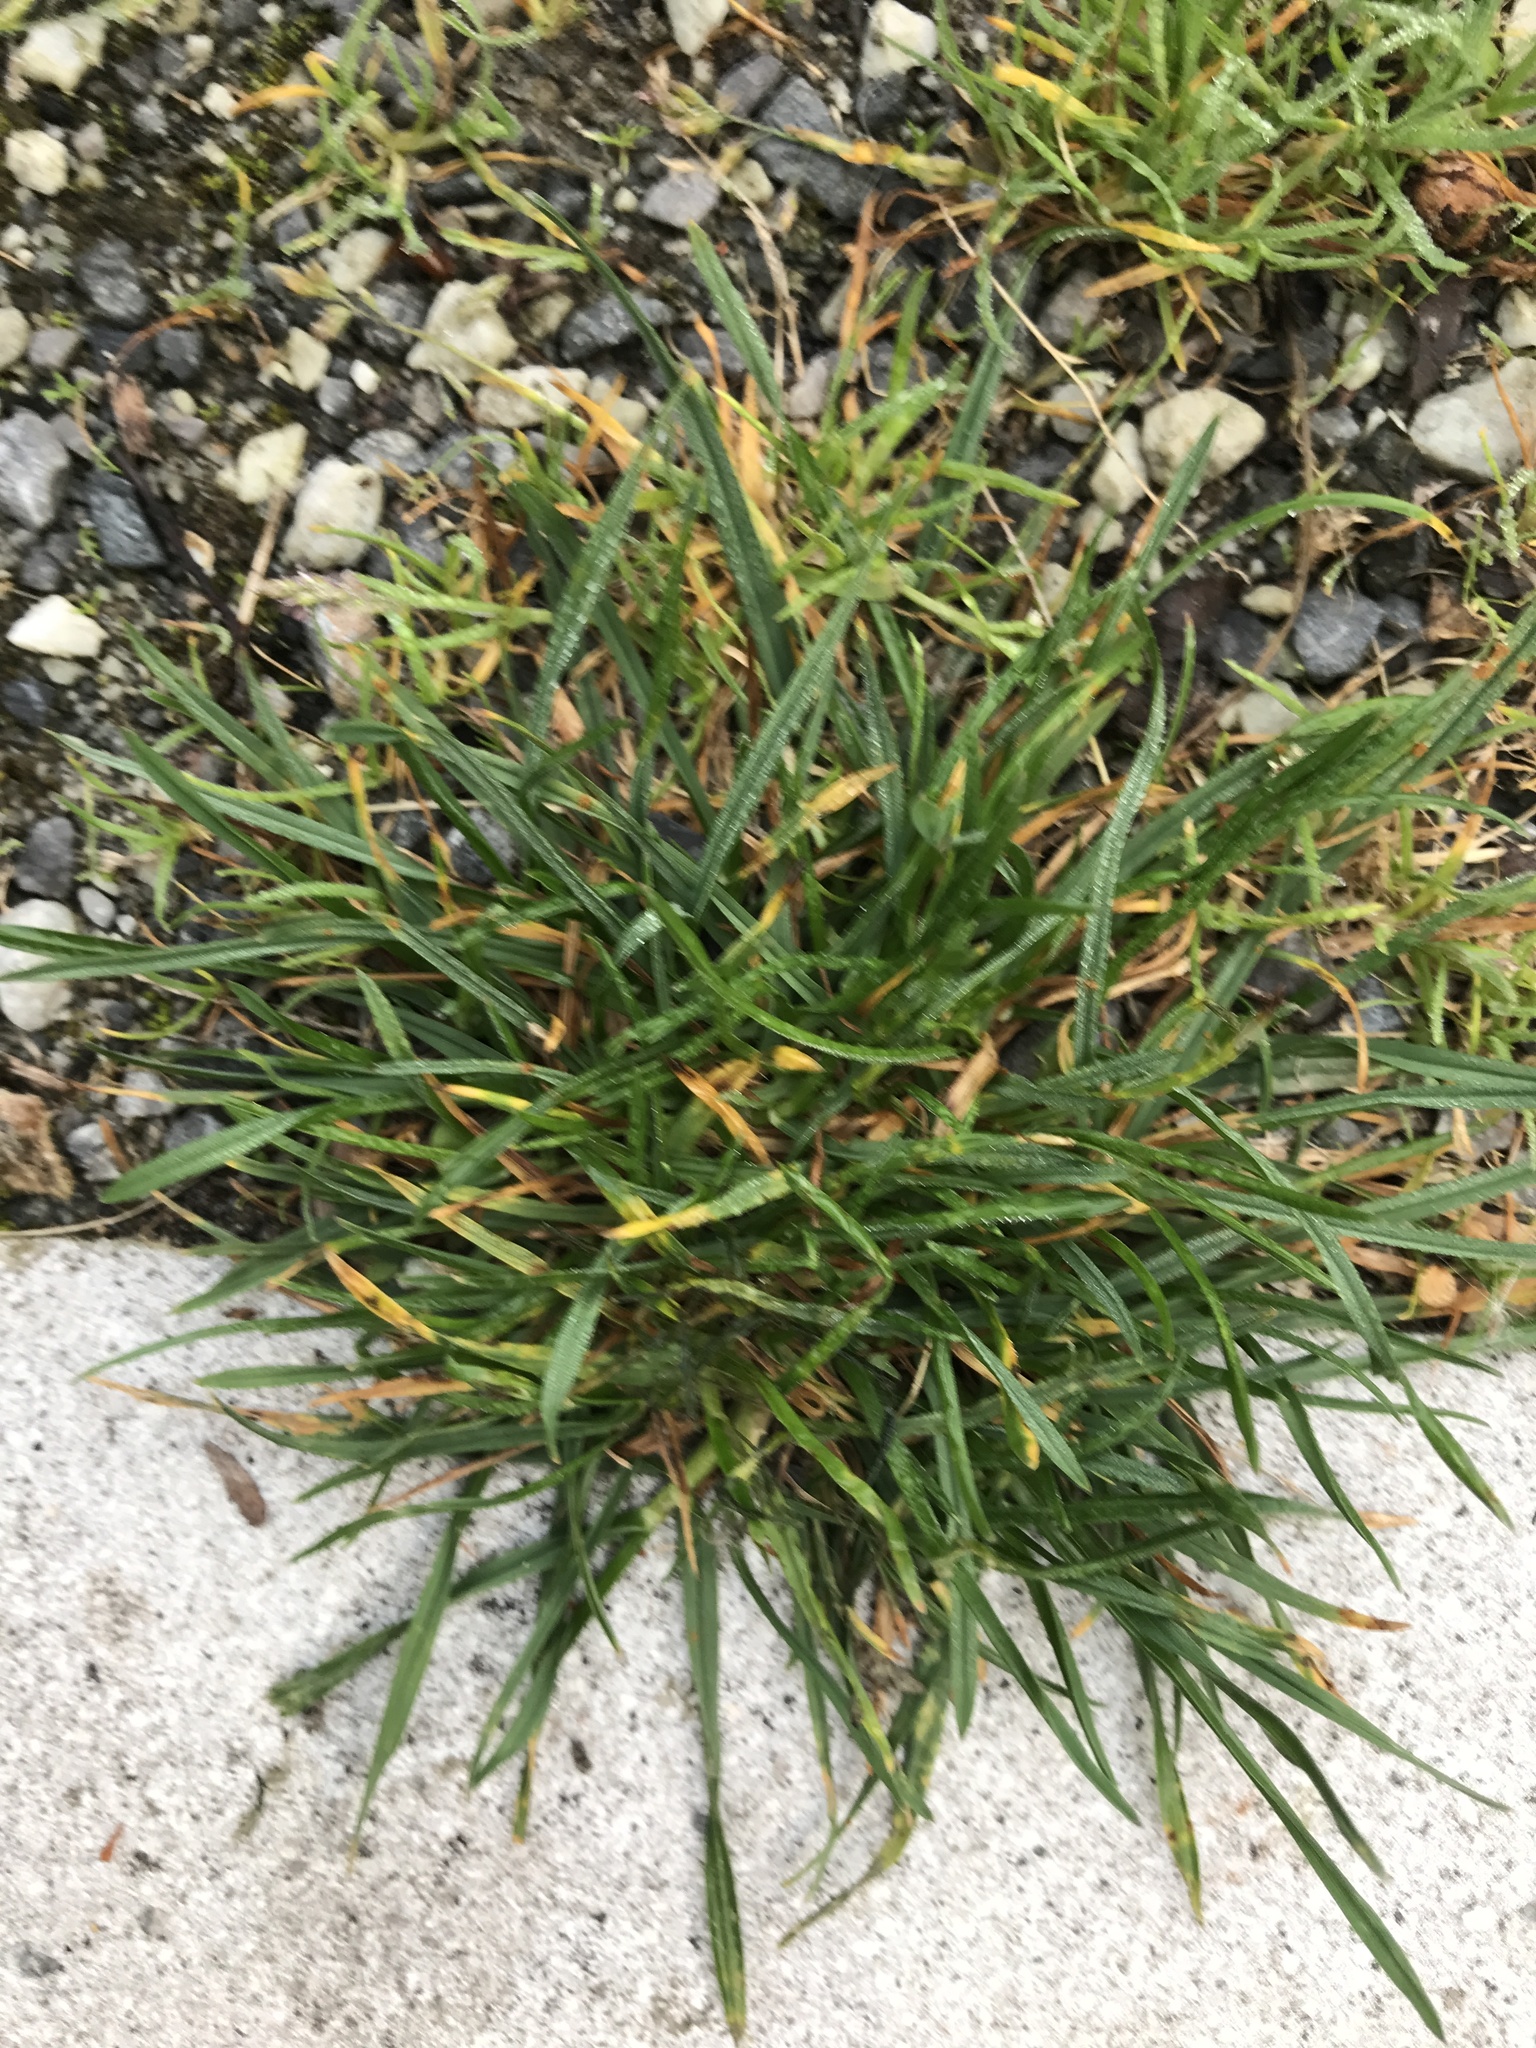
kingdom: Plantae
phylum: Tracheophyta
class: Liliopsida
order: Poales
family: Poaceae
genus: Poa
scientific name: Poa annua
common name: Annual bluegrass
